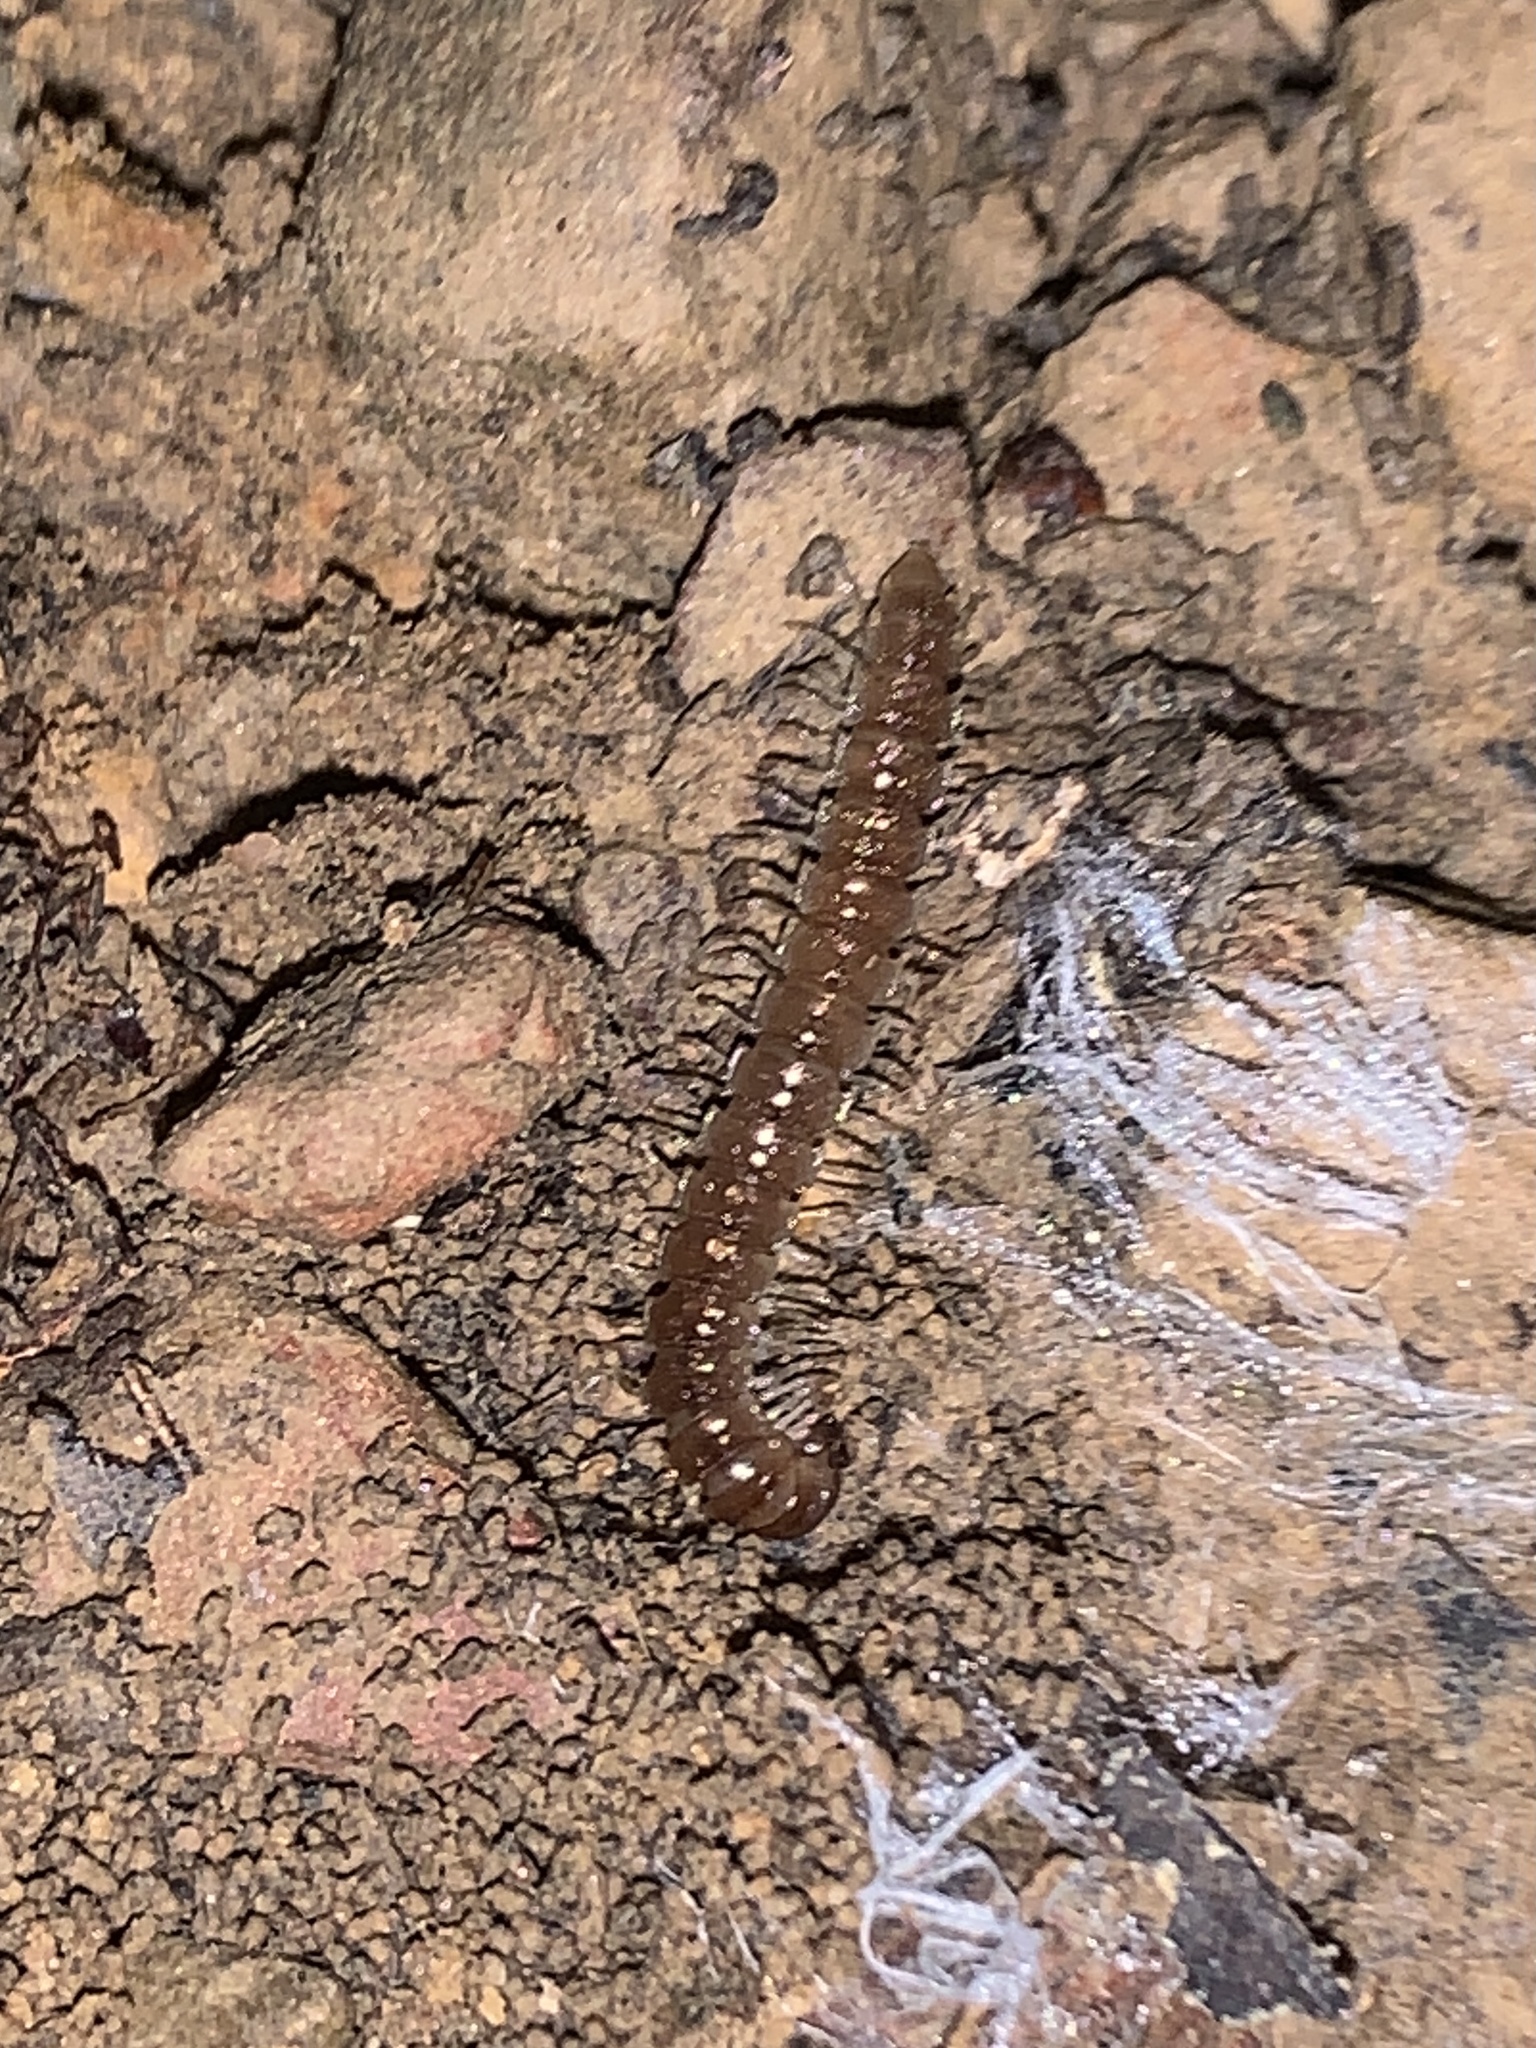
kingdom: Animalia
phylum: Arthropoda
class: Diplopoda
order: Polydesmida
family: Paradoxosomatidae
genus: Oxidus
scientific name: Oxidus gracilis
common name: Greenhouse millipede
